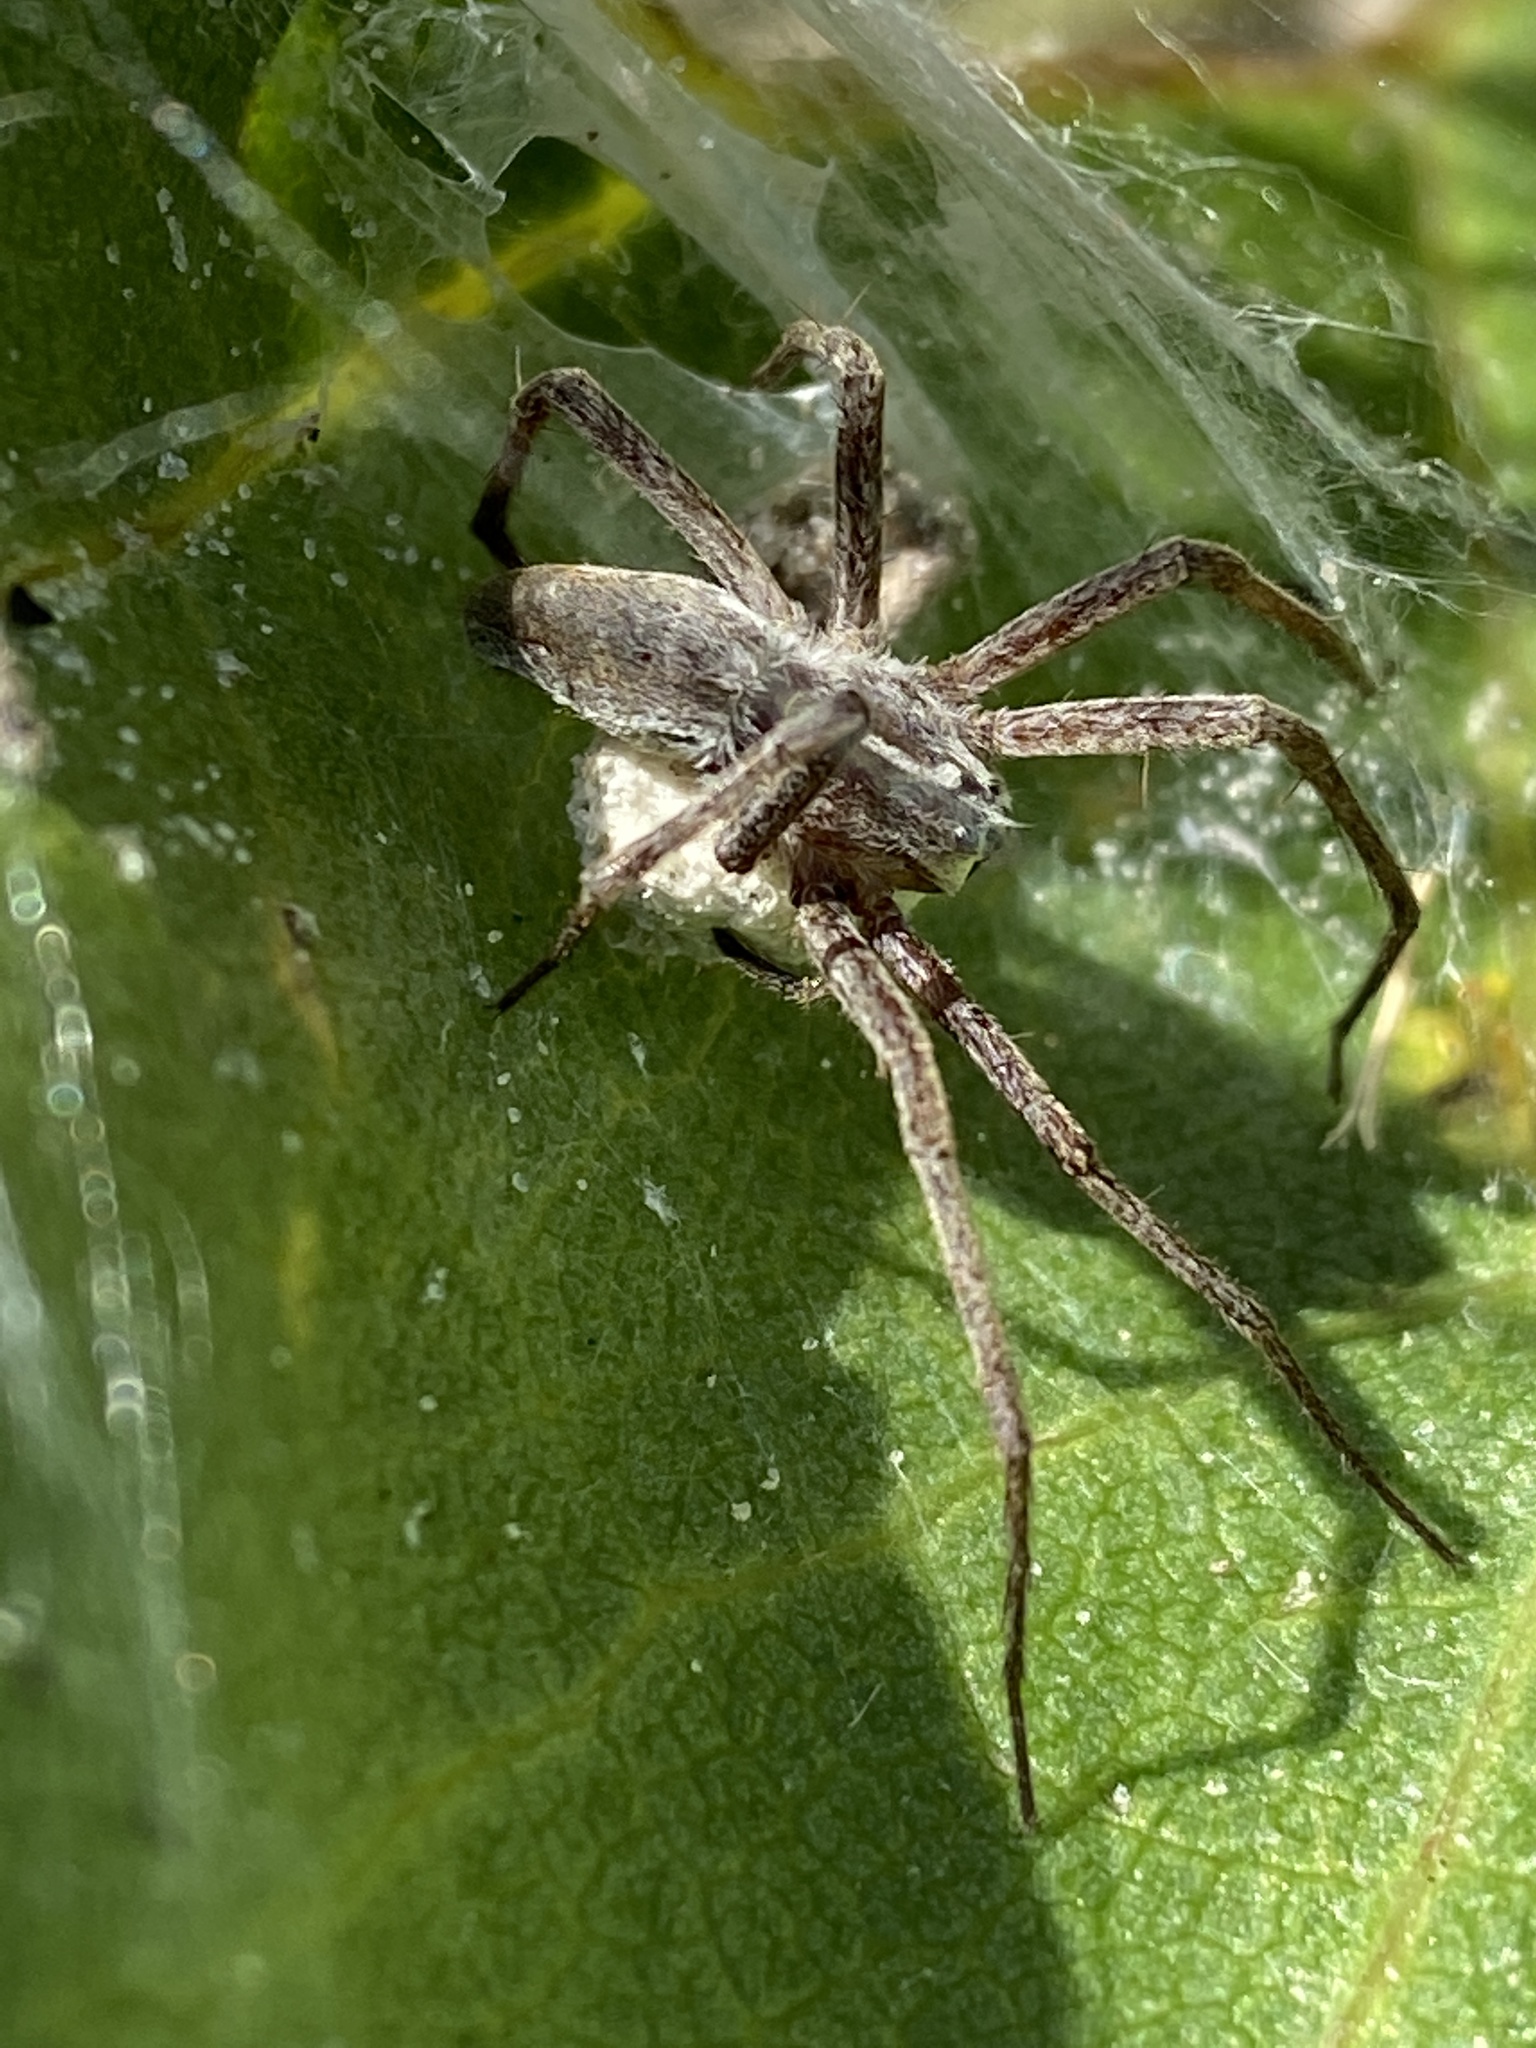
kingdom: Animalia
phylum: Arthropoda
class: Arachnida
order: Araneae
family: Pisauridae
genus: Pisaura
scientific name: Pisaura mirabilis
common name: Tent spider
